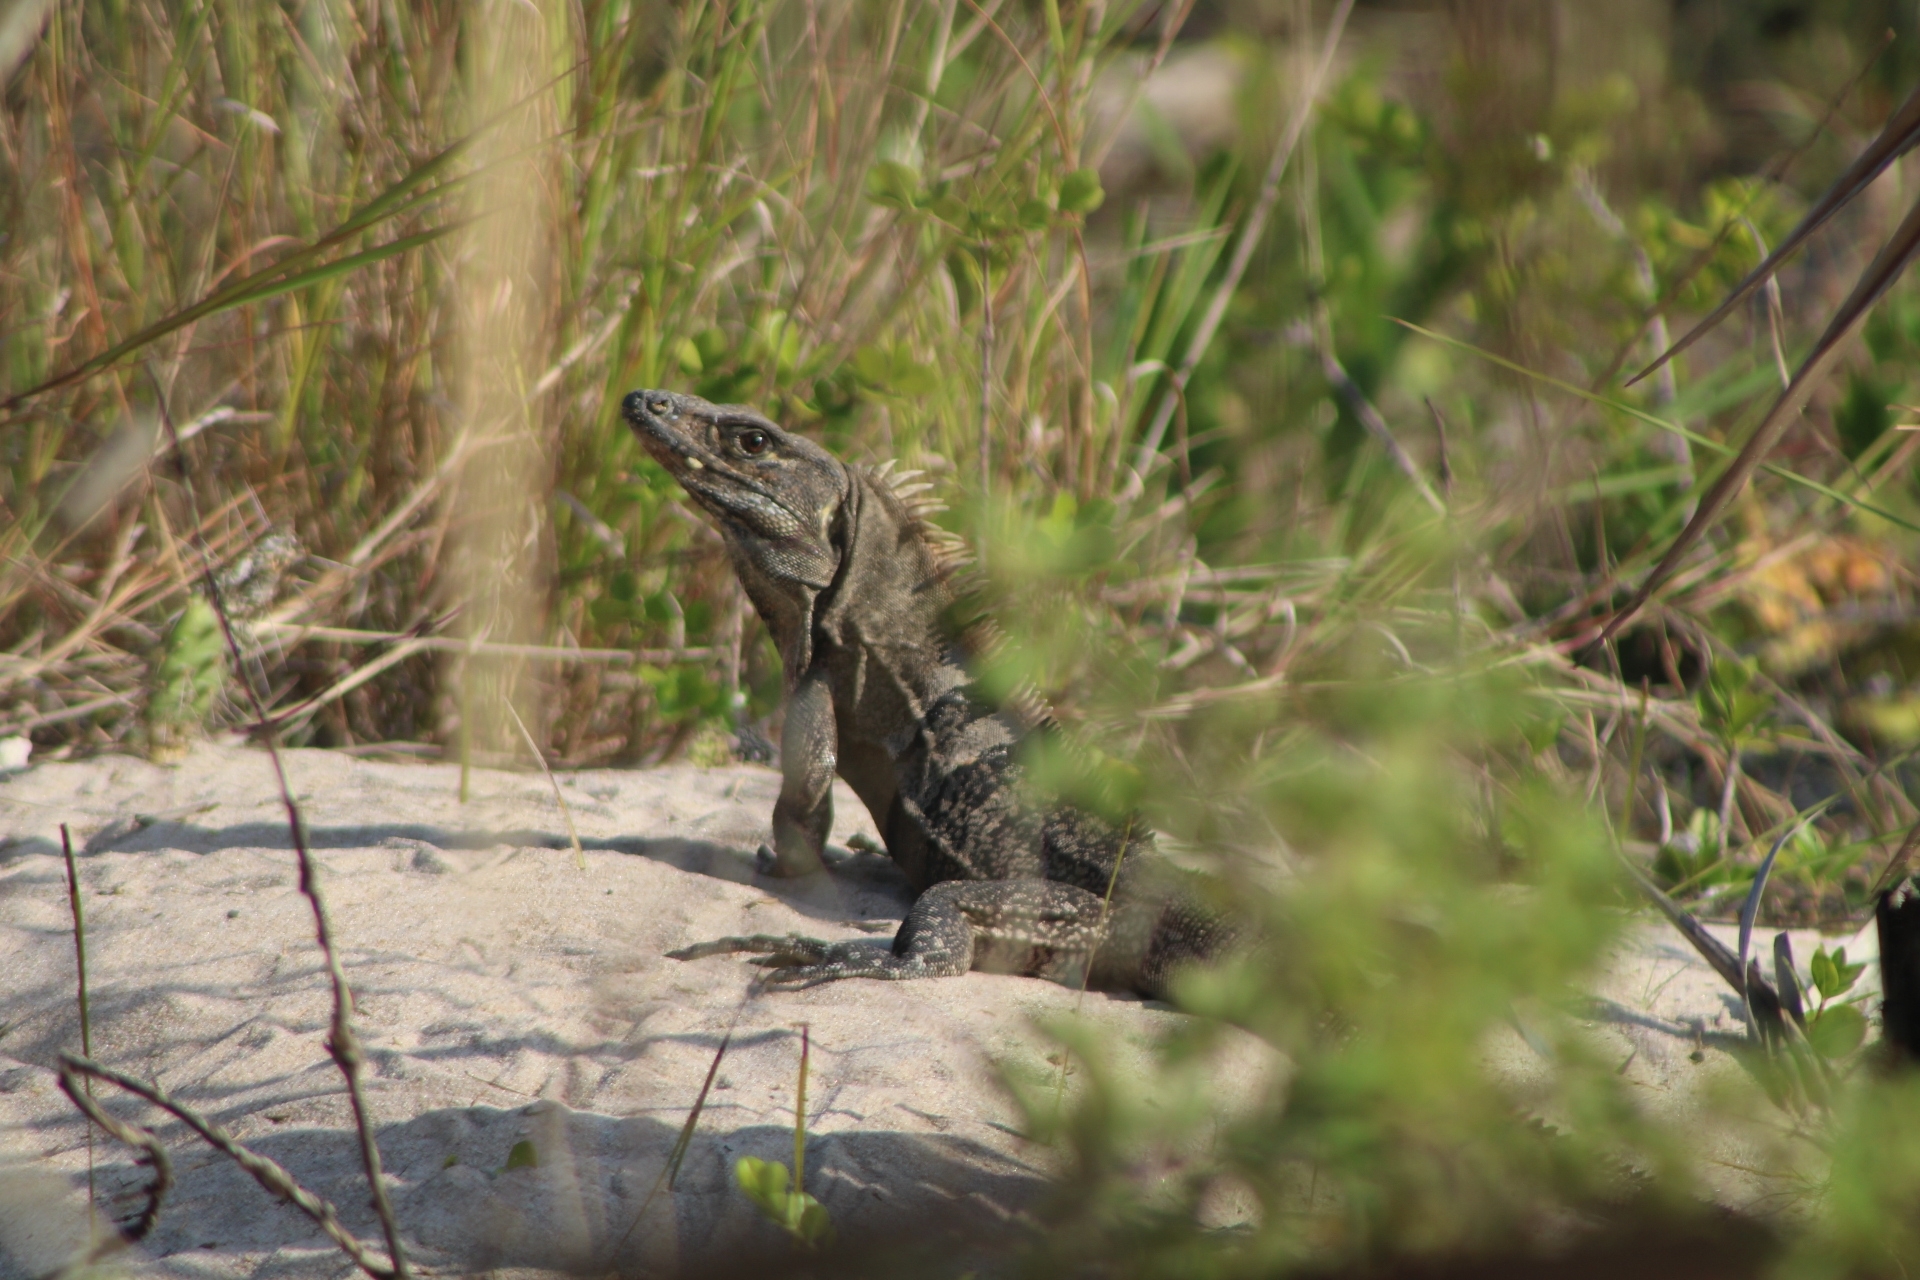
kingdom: Animalia
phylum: Chordata
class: Squamata
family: Iguanidae
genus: Ctenosaura
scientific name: Ctenosaura similis
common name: Black spiny-tailed iguana
